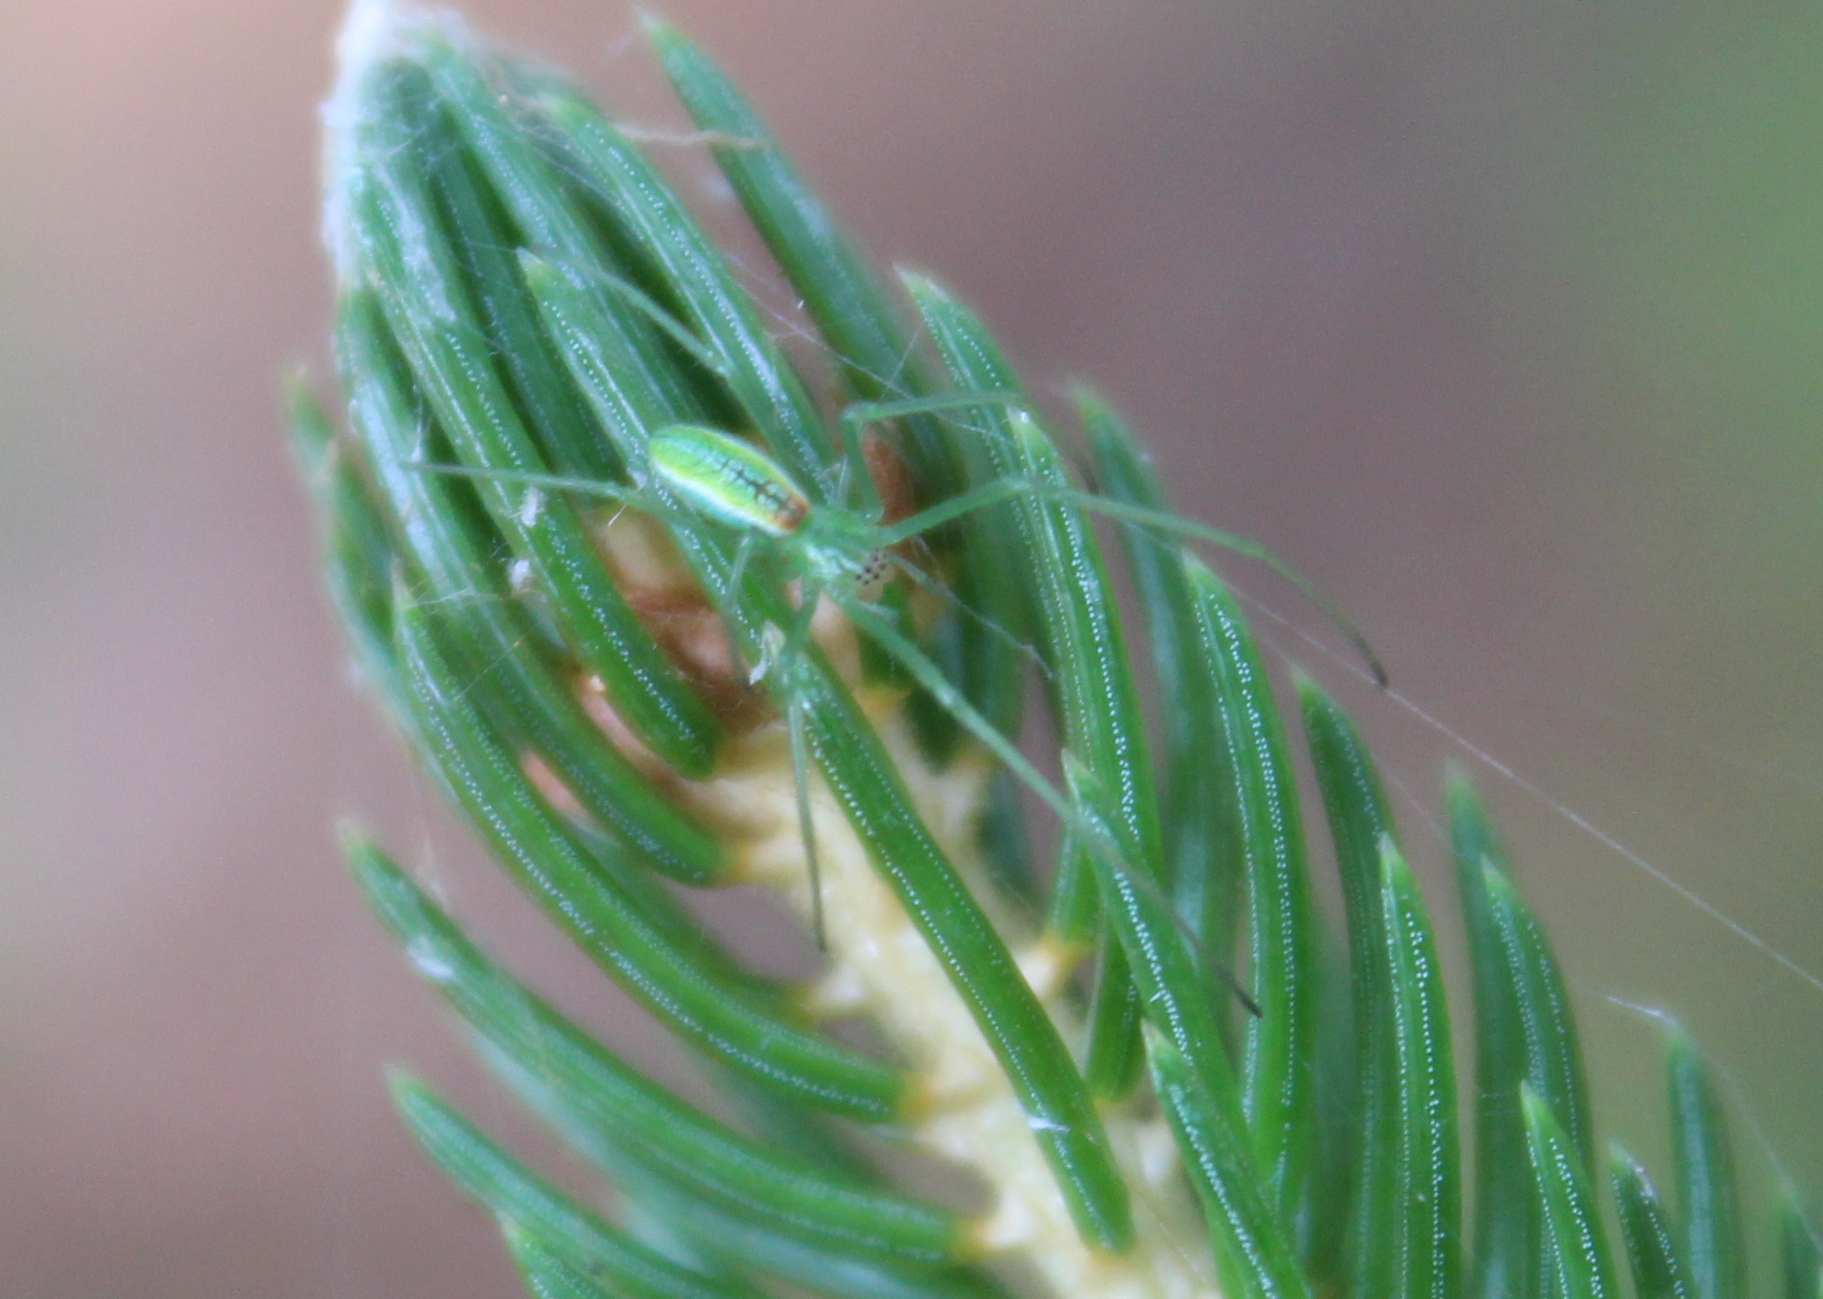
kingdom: Animalia
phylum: Arthropoda
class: Arachnida
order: Araneae
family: Tetragnathidae
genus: Tetragnatha
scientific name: Tetragnatha viridis
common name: Green long-jawed spider
